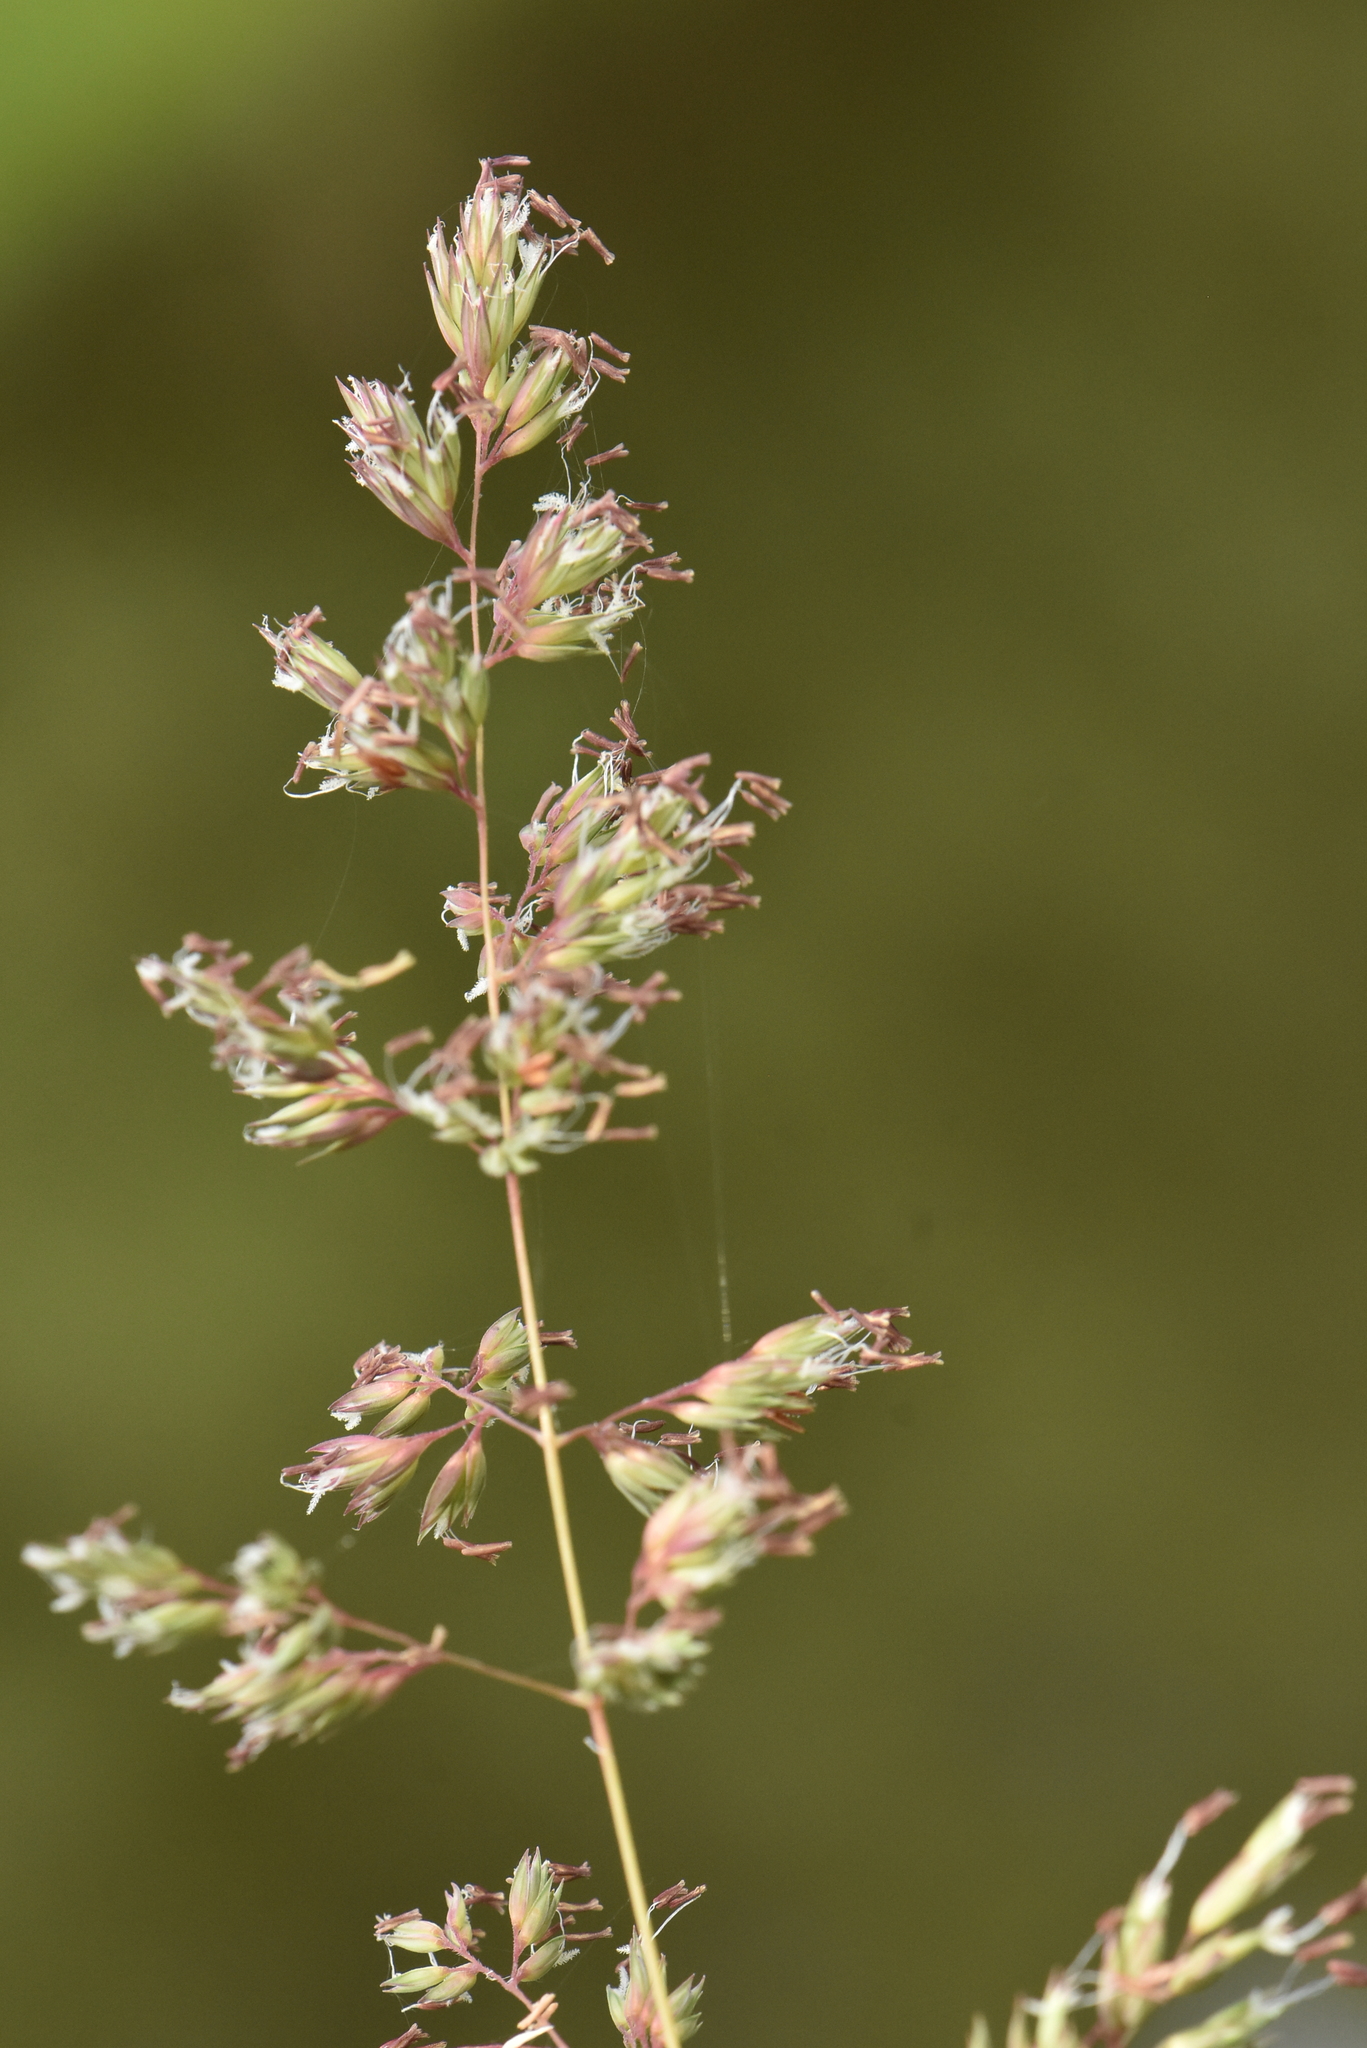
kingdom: Plantae
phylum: Tracheophyta
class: Liliopsida
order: Poales
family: Poaceae
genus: Phalaris
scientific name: Phalaris arundinacea
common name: Reed canary-grass
